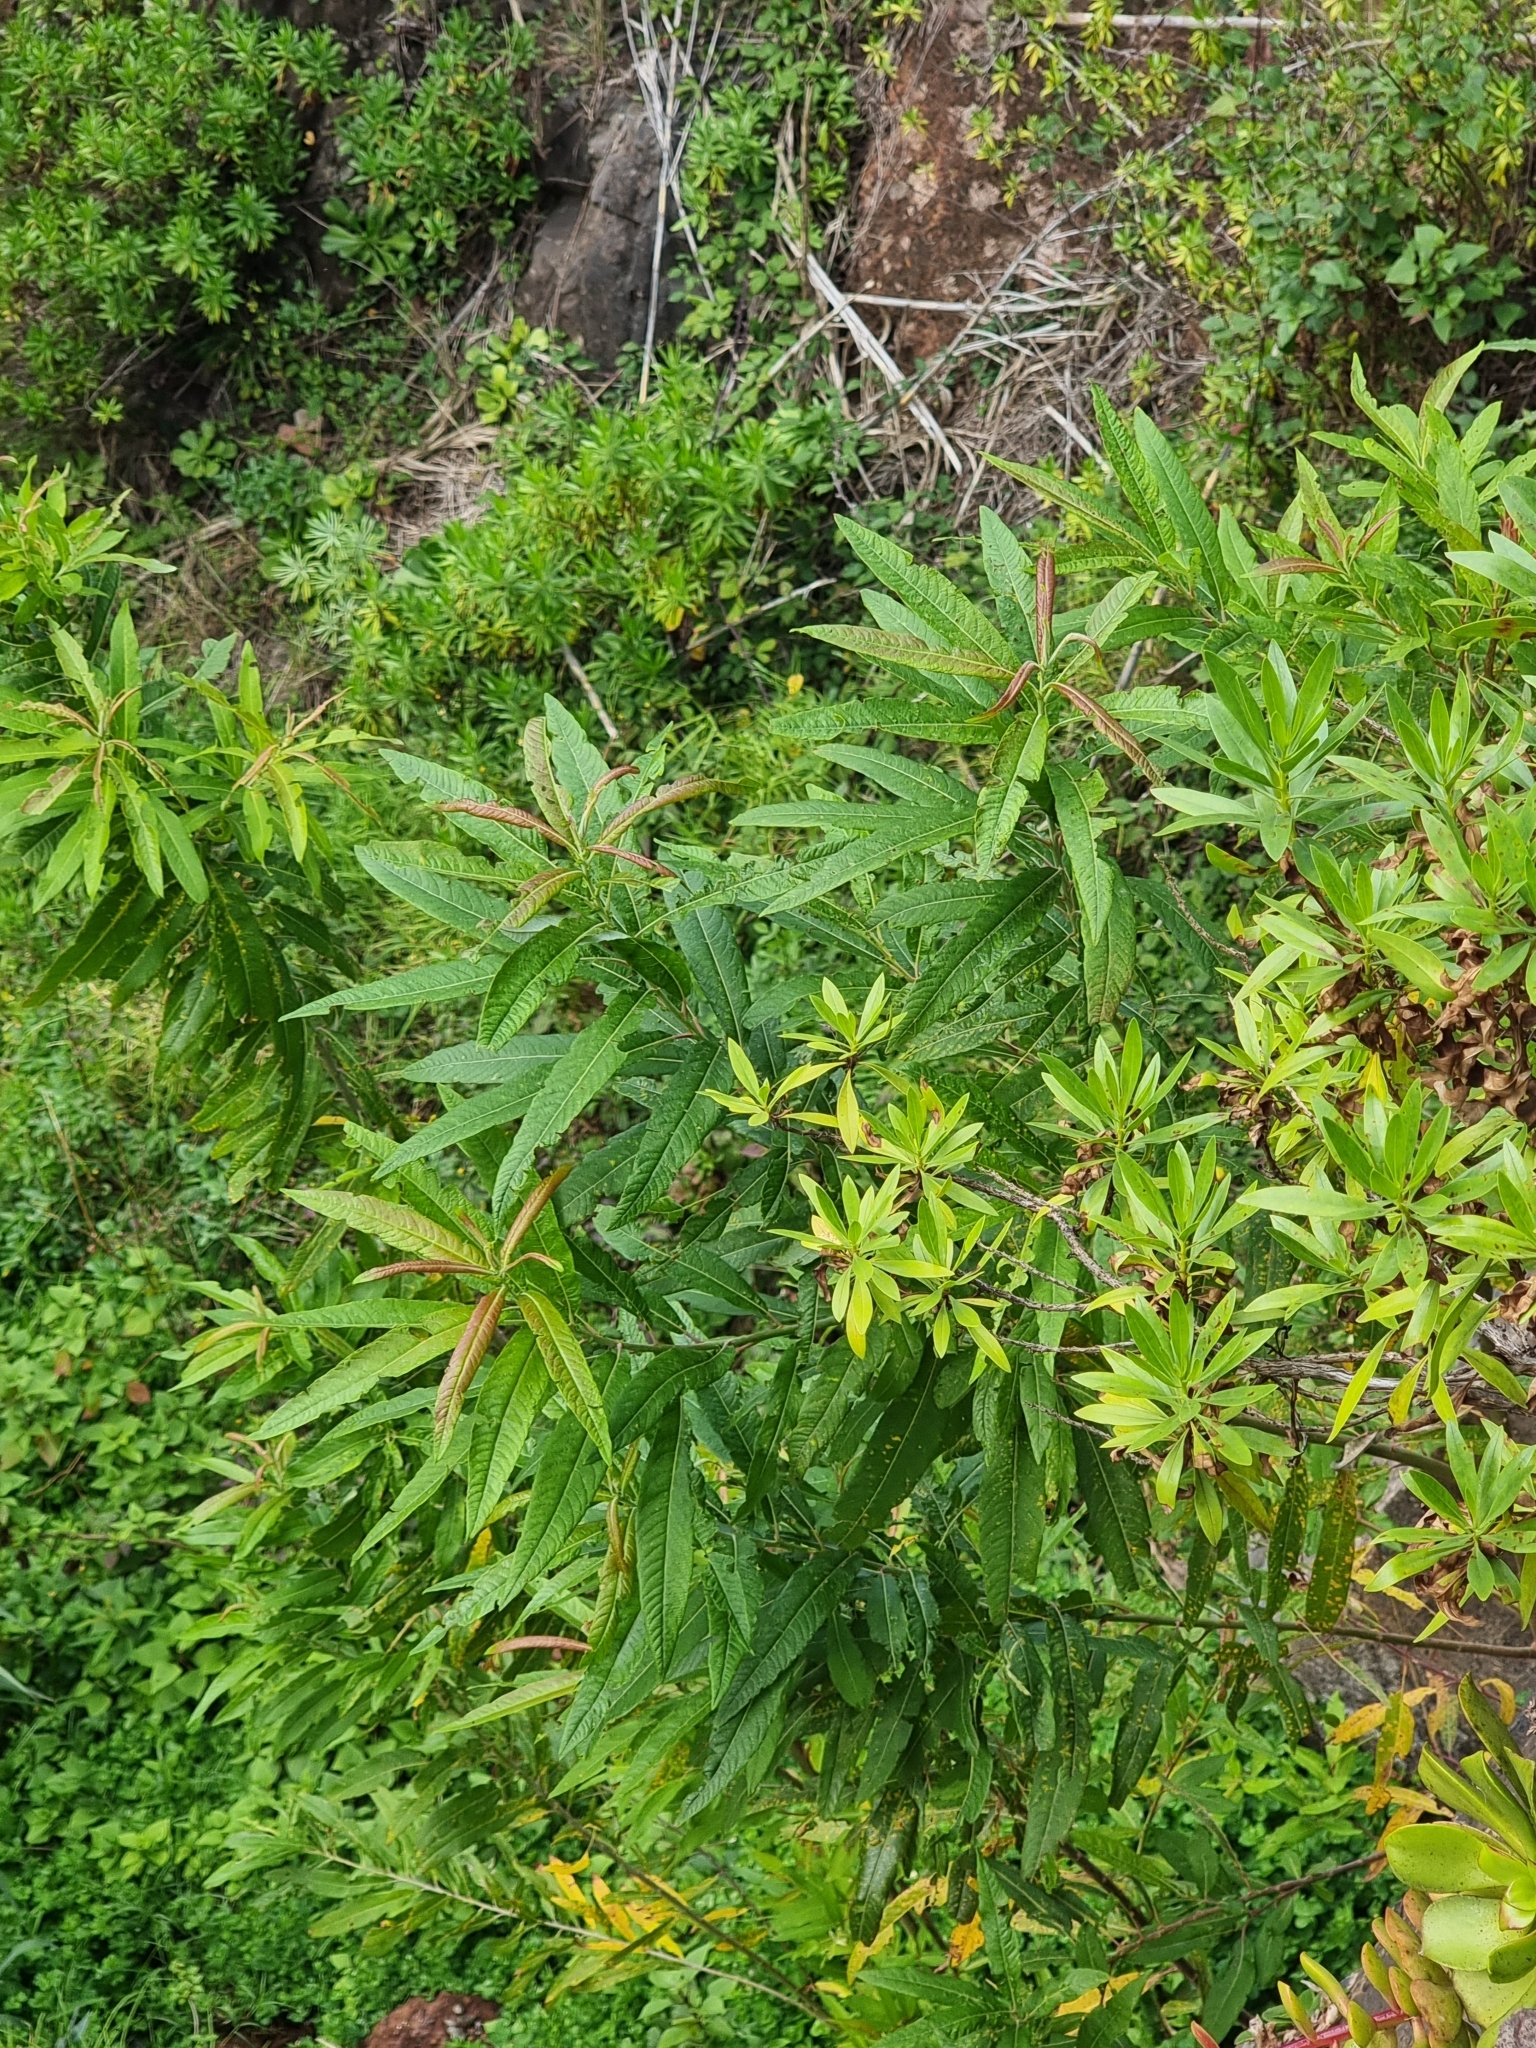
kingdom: Plantae
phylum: Tracheophyta
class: Magnoliopsida
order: Malpighiales
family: Salicaceae
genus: Salix
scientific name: Salix canariensis
